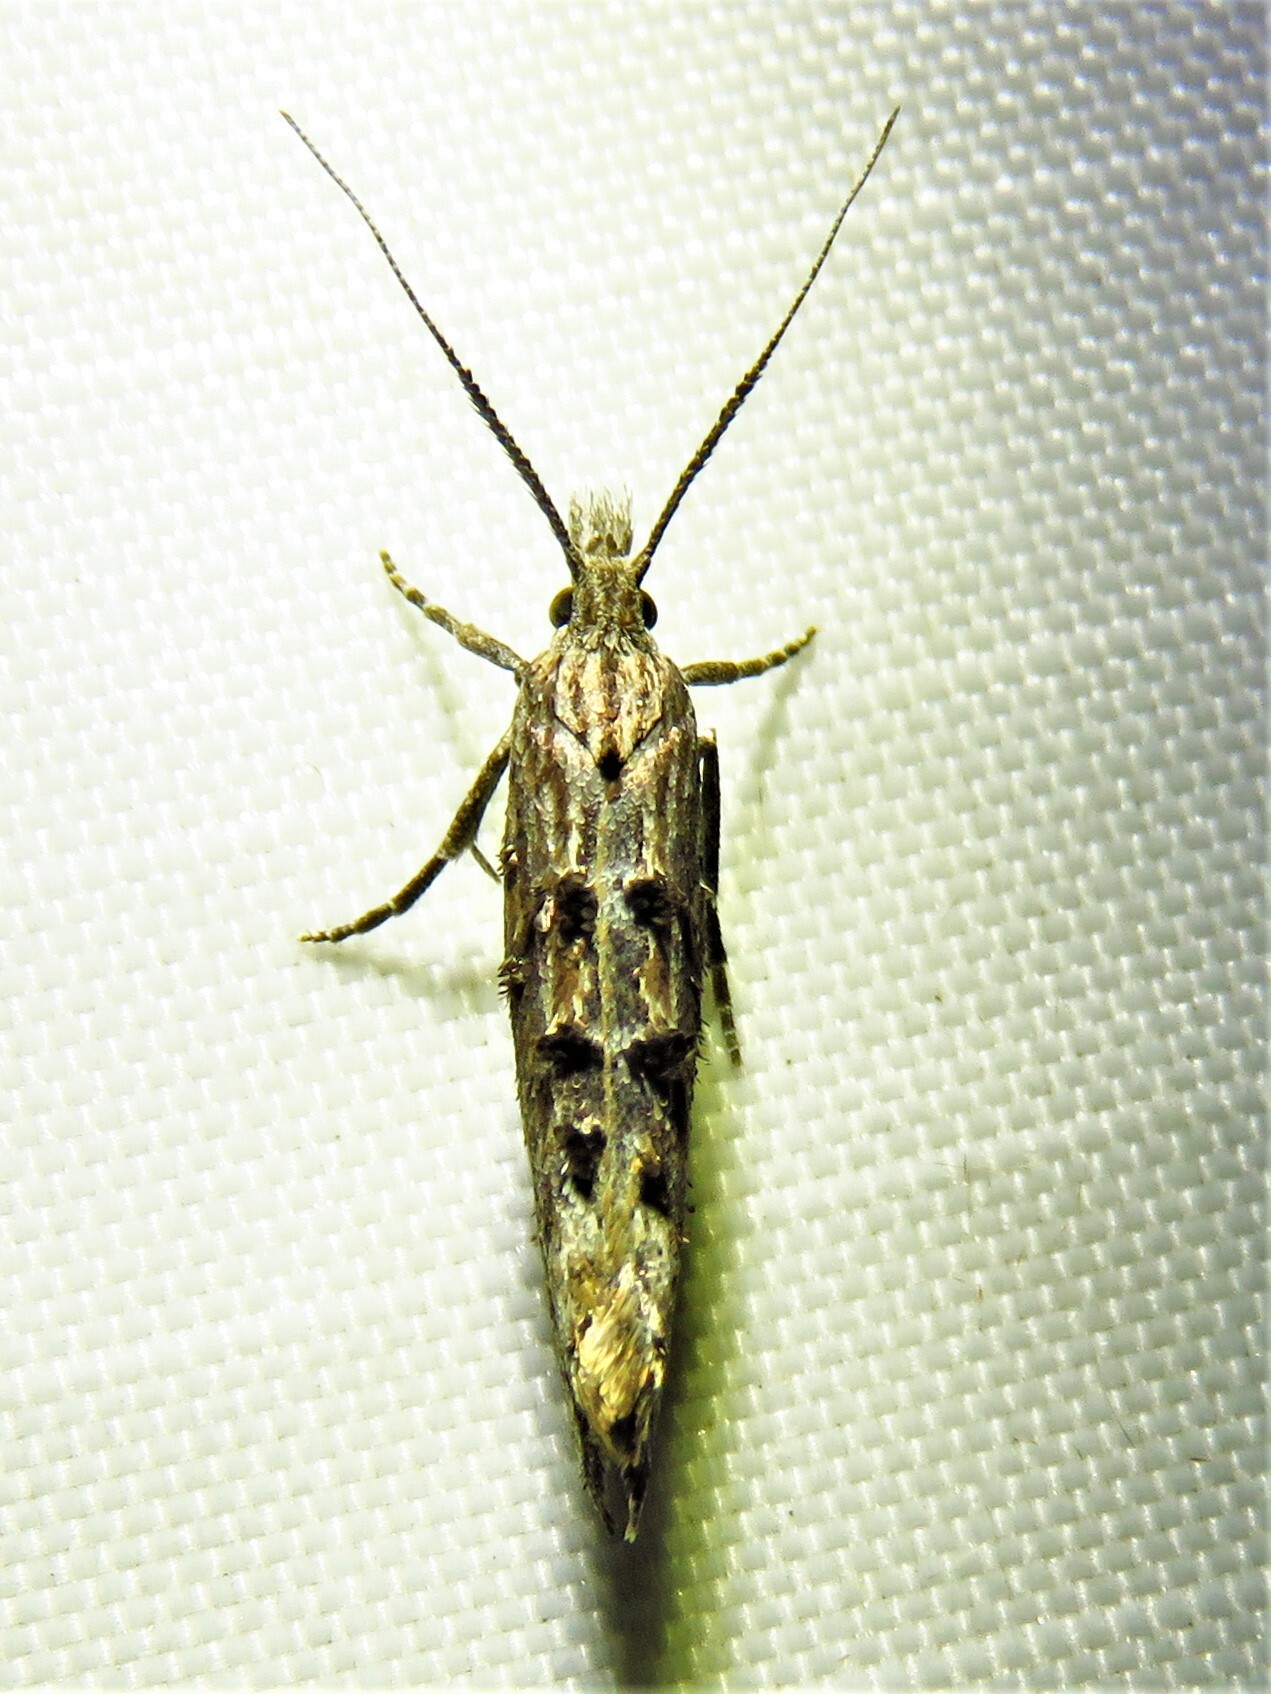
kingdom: Animalia
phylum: Arthropoda
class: Insecta
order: Lepidoptera
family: Ypsolophidae
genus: Ypsolopha
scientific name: Ypsolopha horridella
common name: Dark smudge
